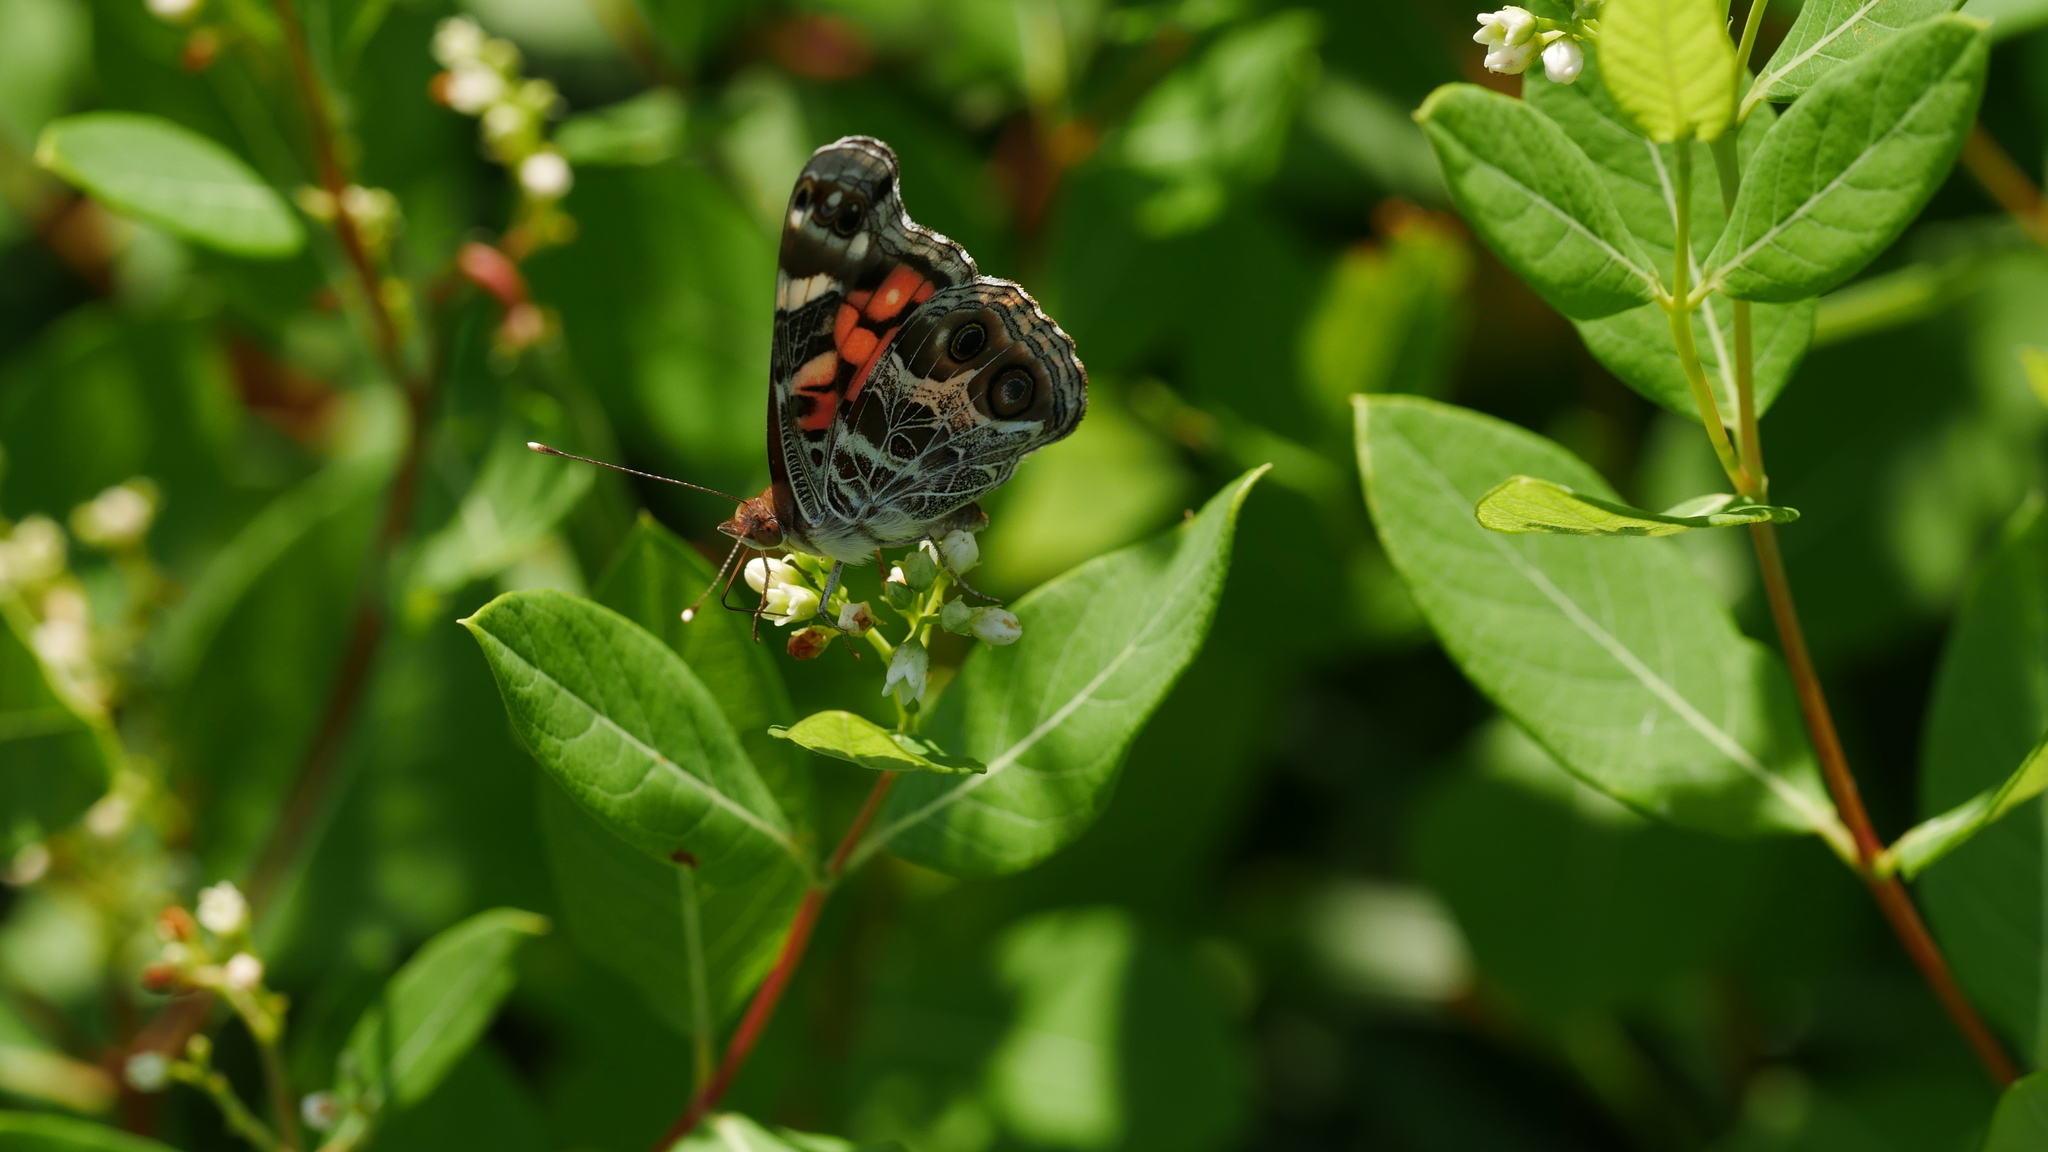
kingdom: Animalia
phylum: Arthropoda
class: Insecta
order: Lepidoptera
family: Nymphalidae
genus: Vanessa
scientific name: Vanessa virginiensis
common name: American lady
